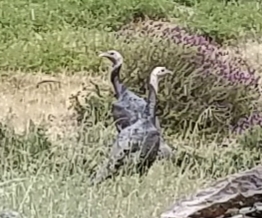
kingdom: Animalia
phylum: Chordata
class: Aves
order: Galliformes
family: Phasianidae
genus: Meleagris
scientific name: Meleagris gallopavo
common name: Wild turkey
